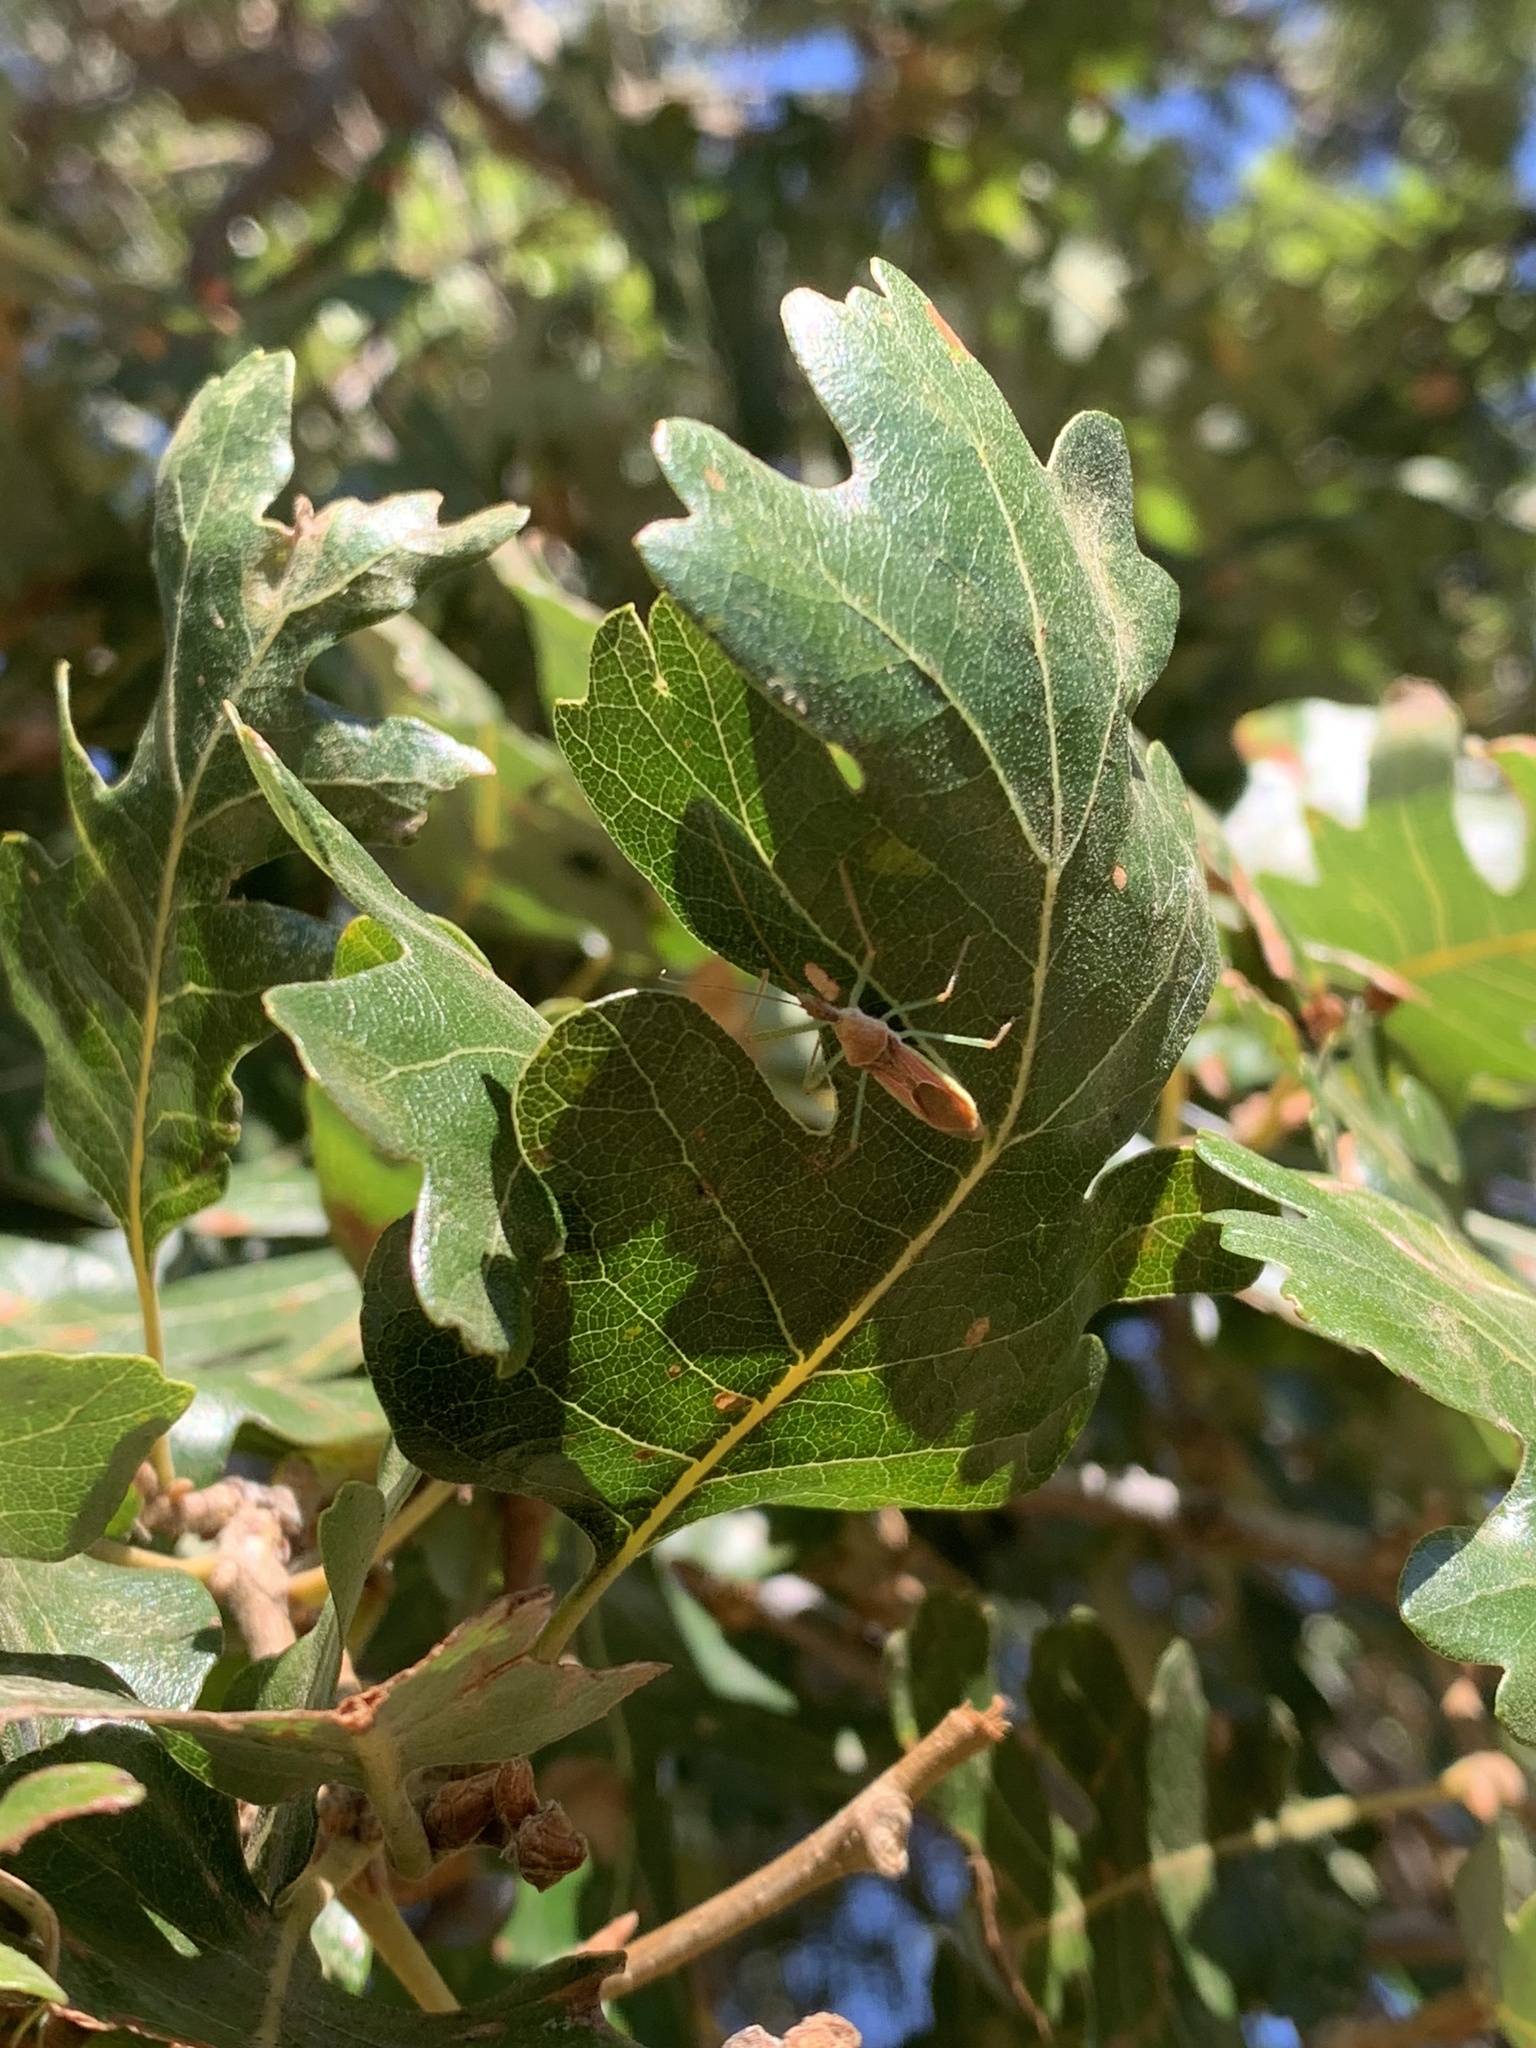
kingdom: Animalia
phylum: Arthropoda
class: Insecta
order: Hemiptera
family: Reduviidae
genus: Zelus
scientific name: Zelus renardii
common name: Assassin bug
